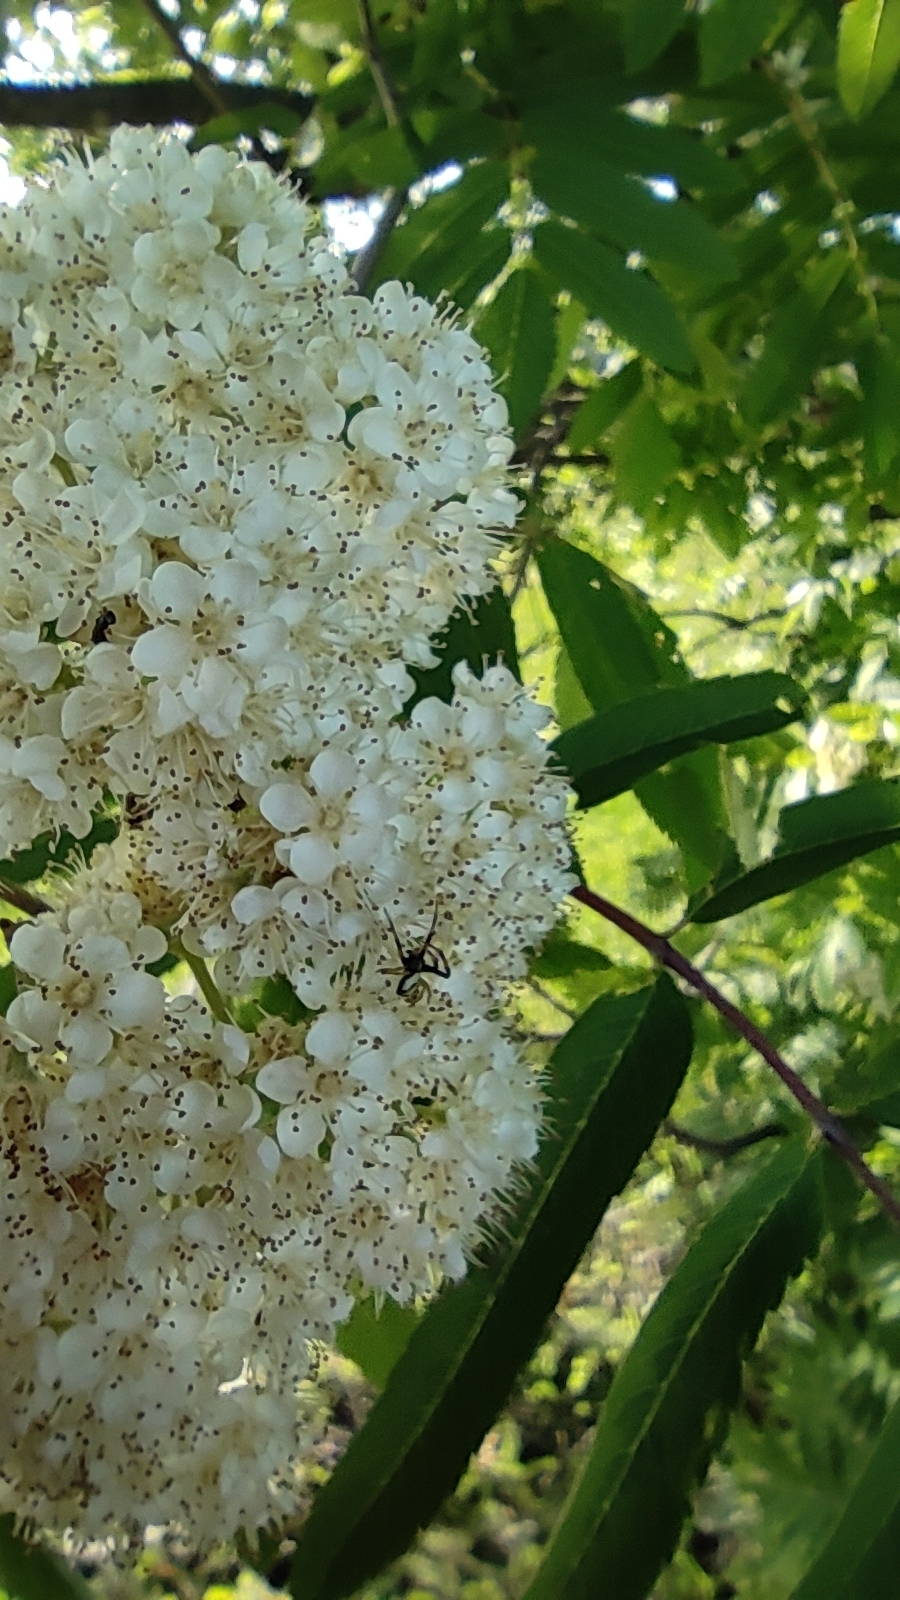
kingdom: Animalia
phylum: Arthropoda
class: Arachnida
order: Araneae
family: Thomisidae
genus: Misumena
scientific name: Misumena vatia
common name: Goldenrod crab spider
